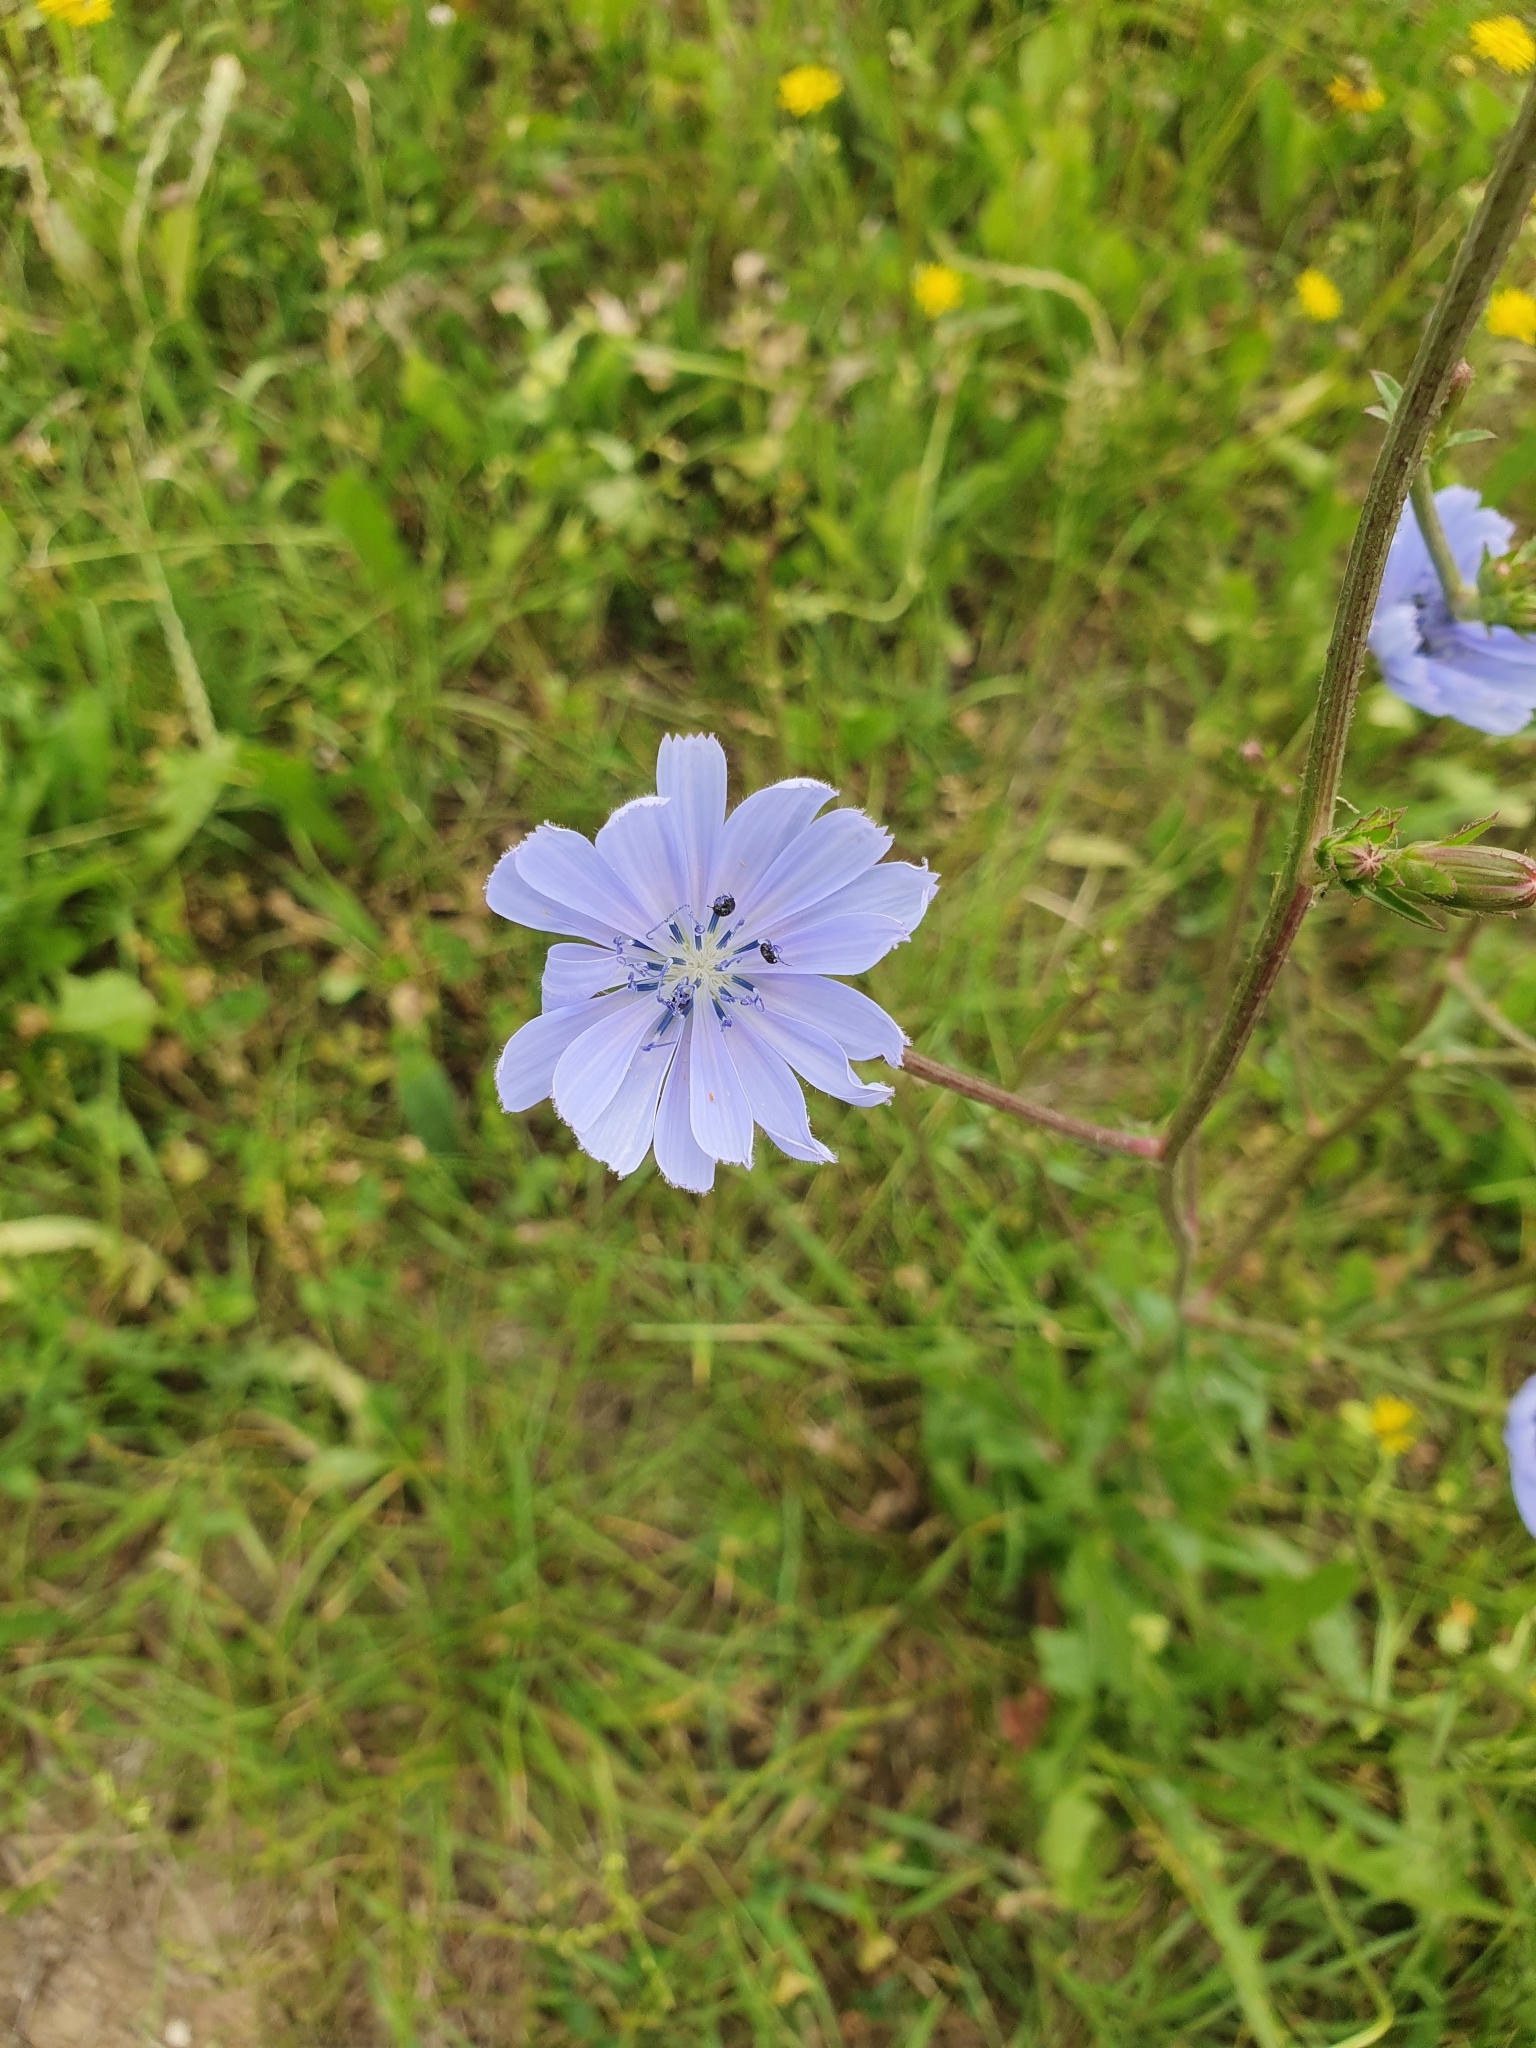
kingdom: Plantae
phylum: Tracheophyta
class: Magnoliopsida
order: Asterales
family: Asteraceae
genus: Cichorium
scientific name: Cichorium intybus
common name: Chicory
